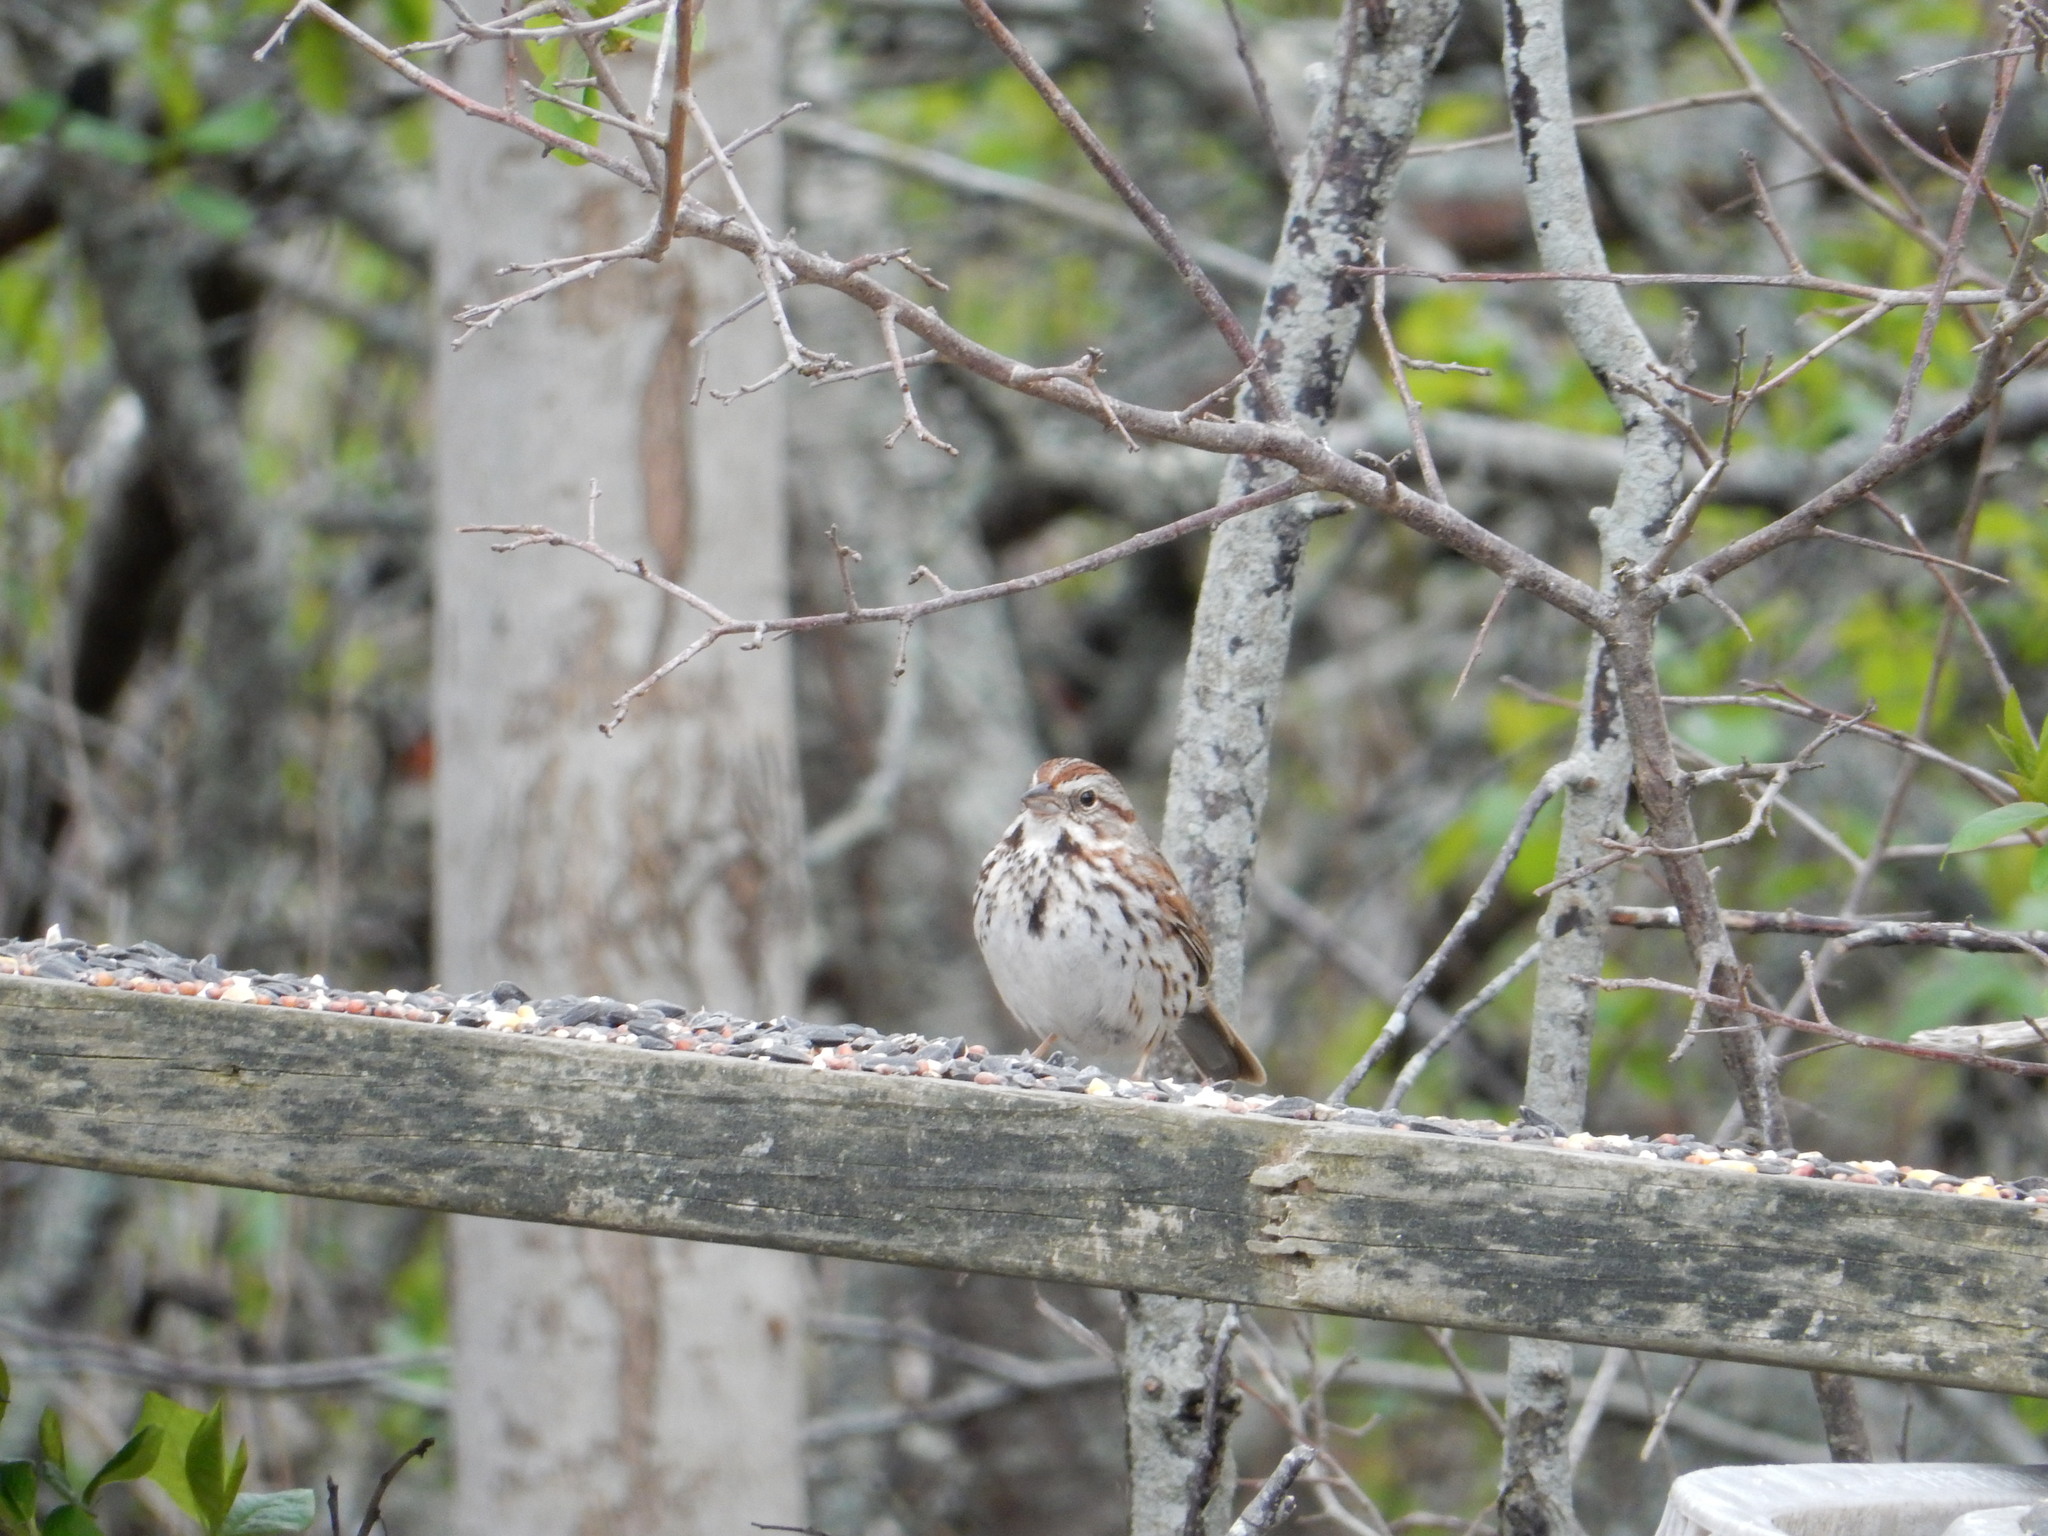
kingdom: Animalia
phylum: Chordata
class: Aves
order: Passeriformes
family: Passerellidae
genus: Melospiza
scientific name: Melospiza melodia
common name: Song sparrow
